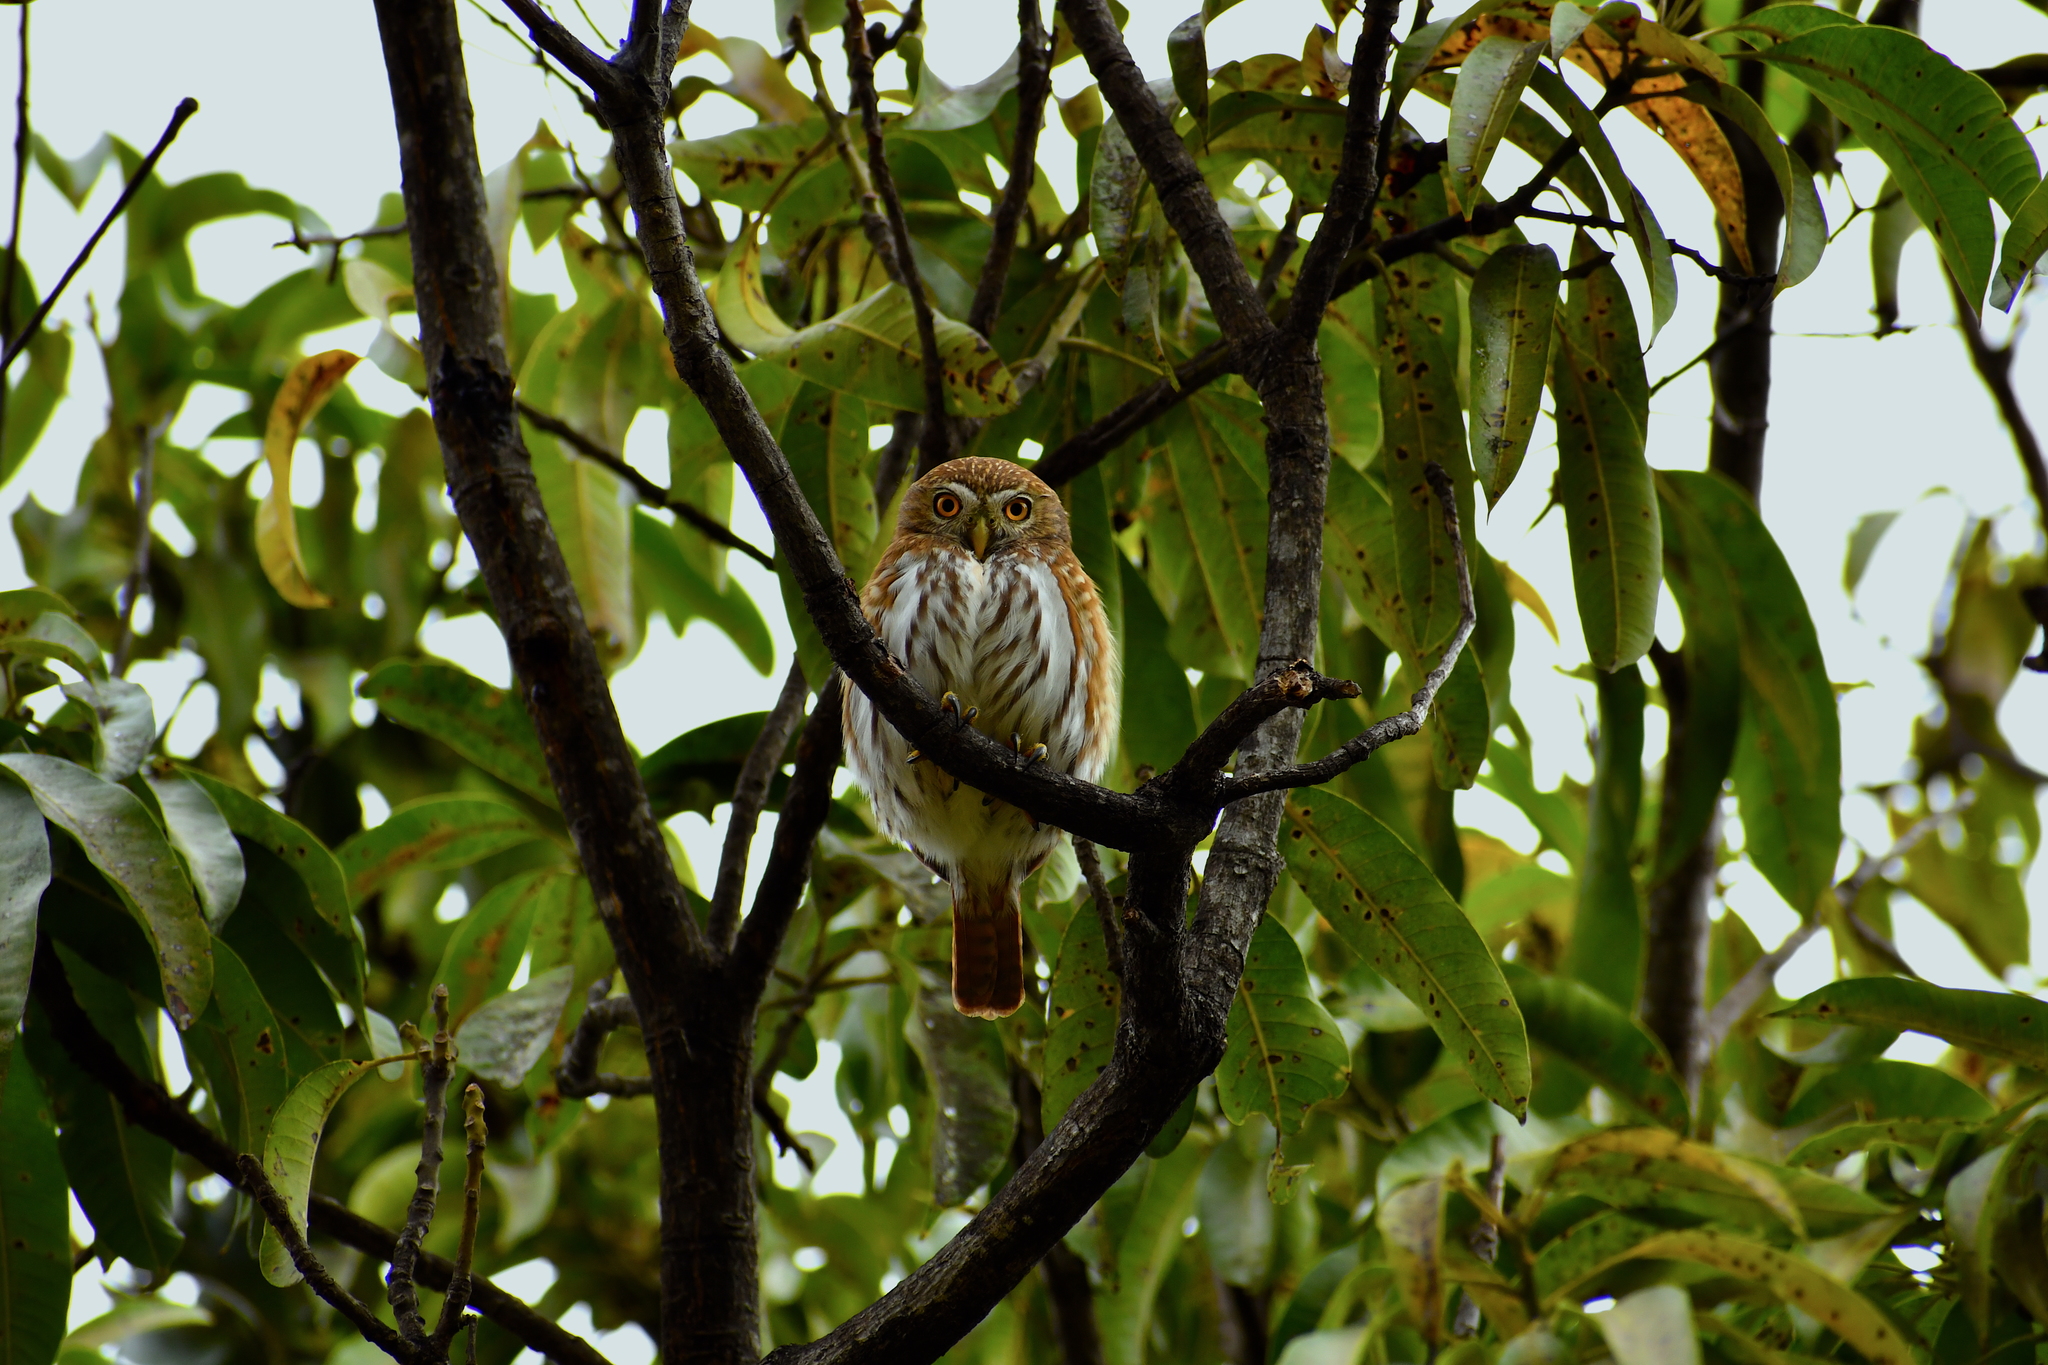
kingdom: Animalia
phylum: Chordata
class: Aves
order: Strigiformes
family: Strigidae
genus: Glaucidium
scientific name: Glaucidium brasilianum
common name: Ferruginous pygmy-owl
